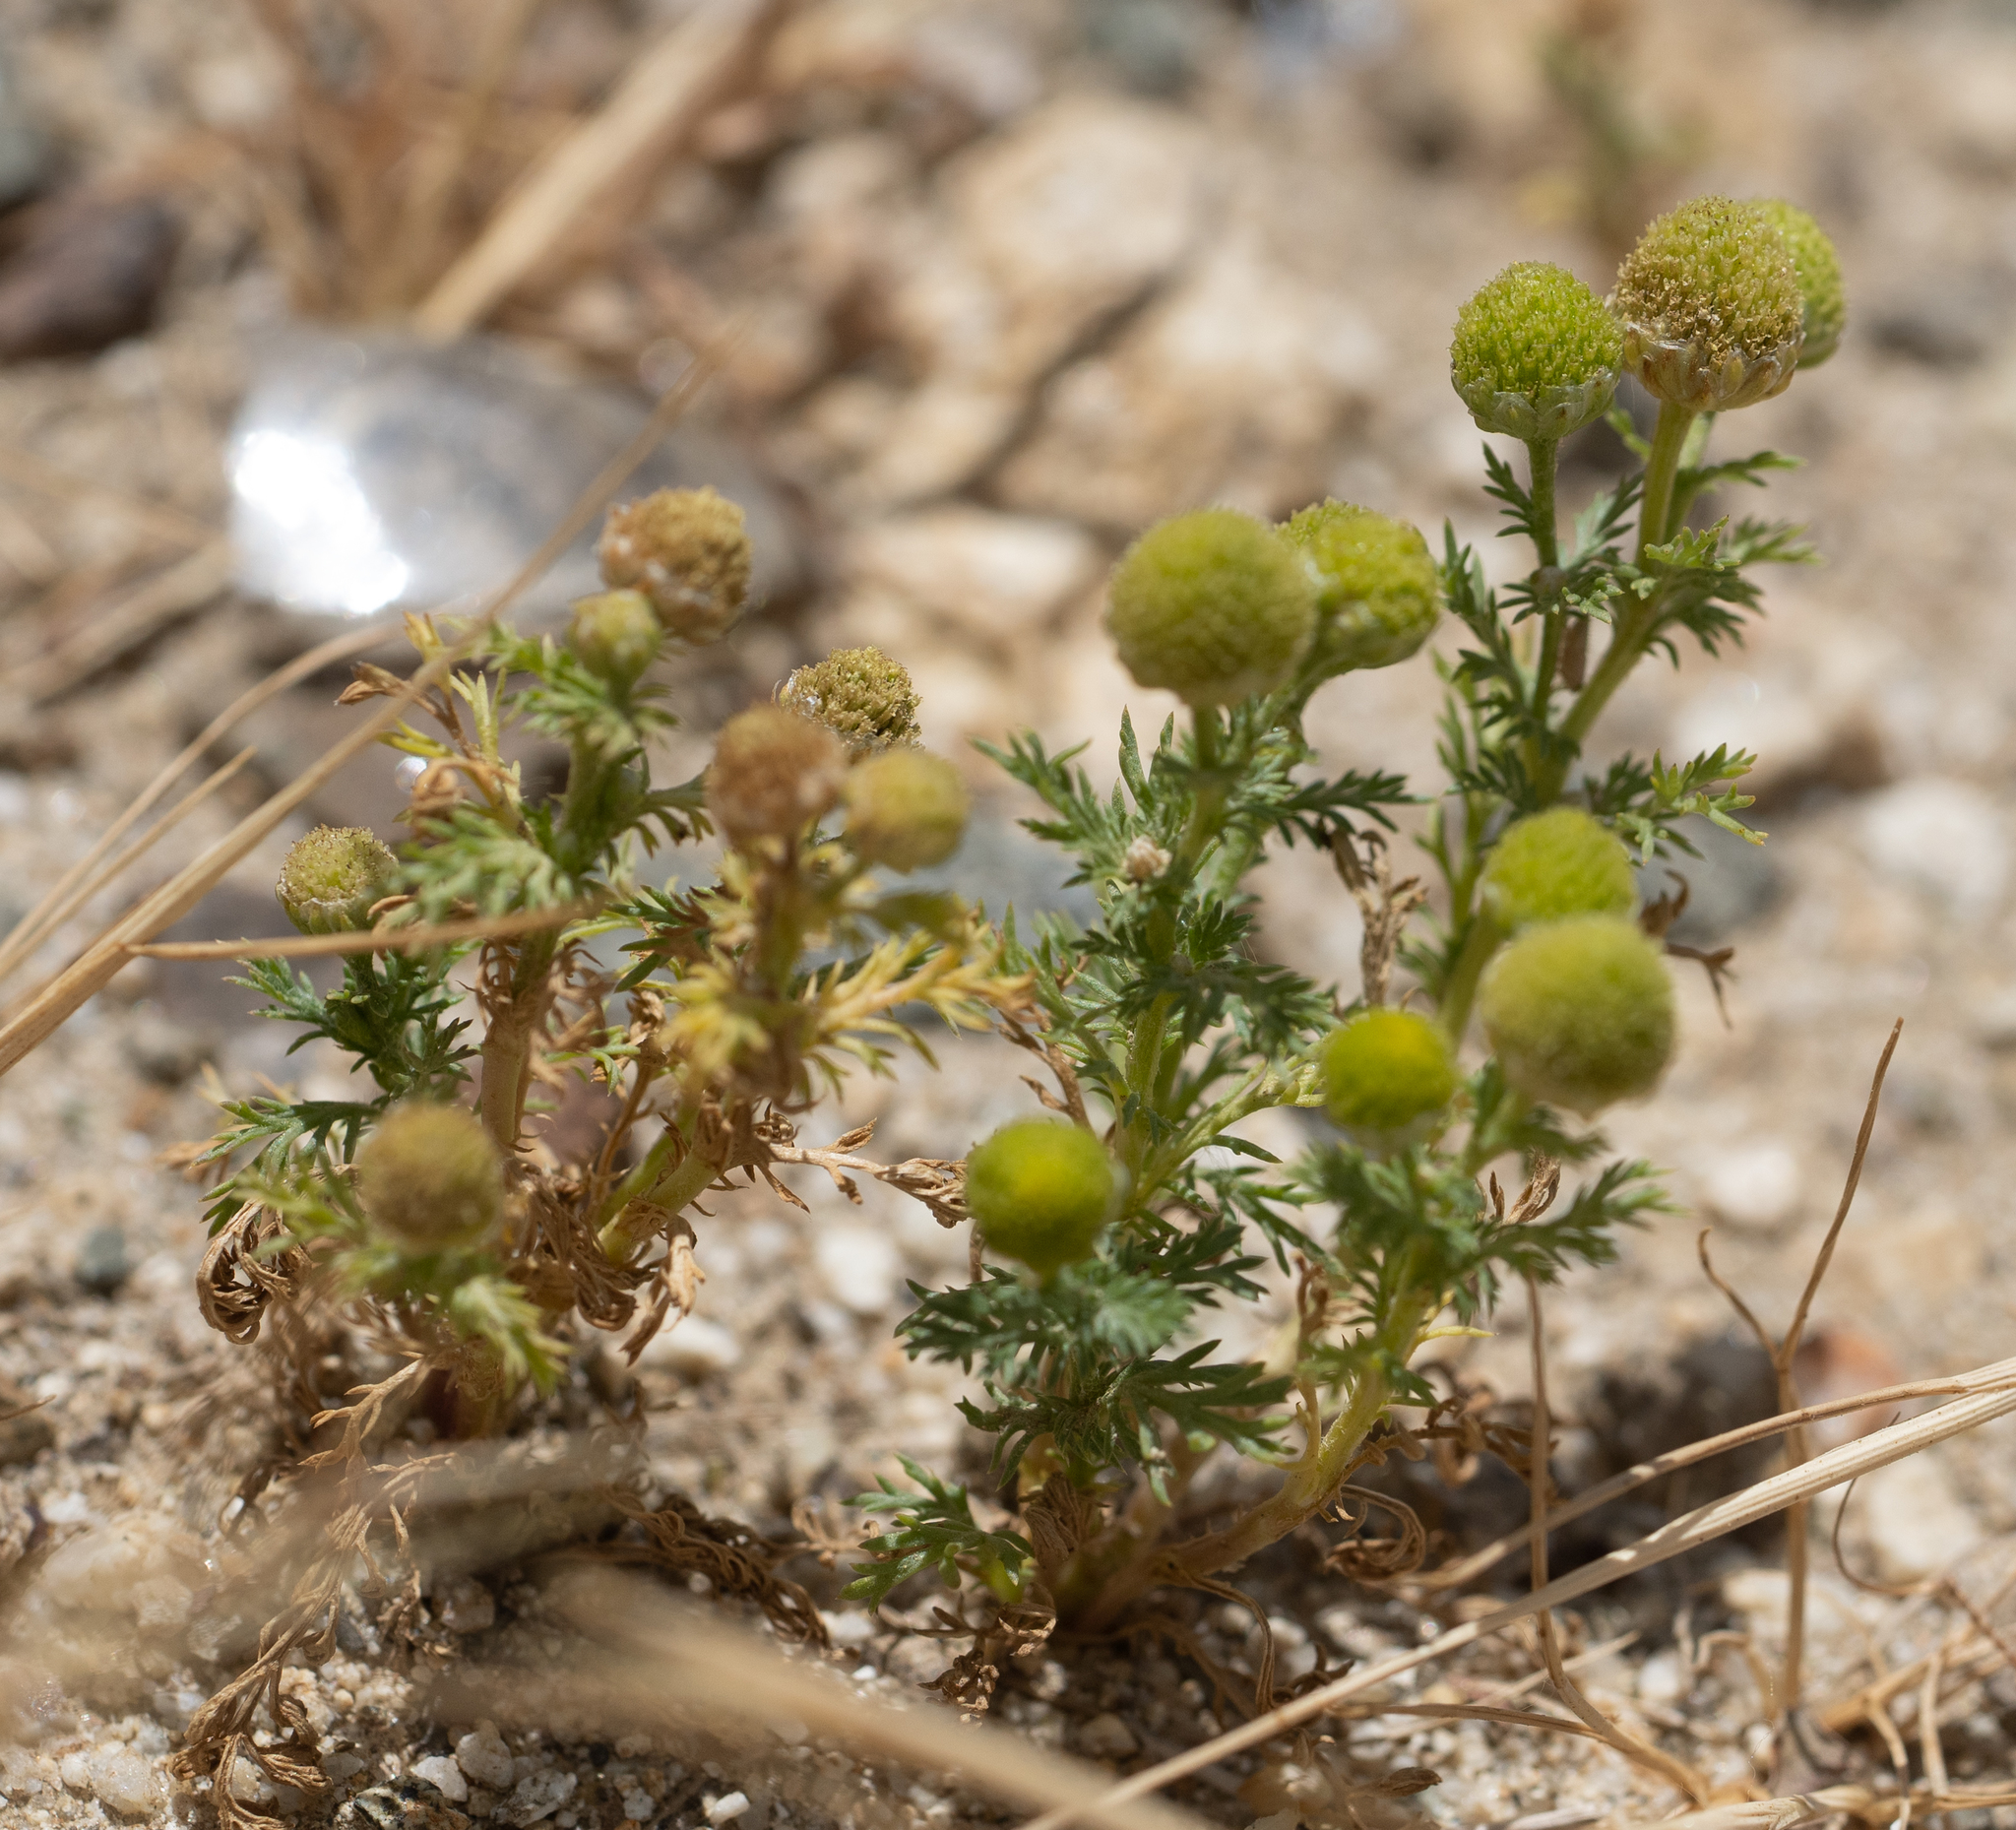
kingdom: Plantae
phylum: Tracheophyta
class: Magnoliopsida
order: Asterales
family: Asteraceae
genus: Matricaria
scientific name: Matricaria discoidea
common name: Disc mayweed
